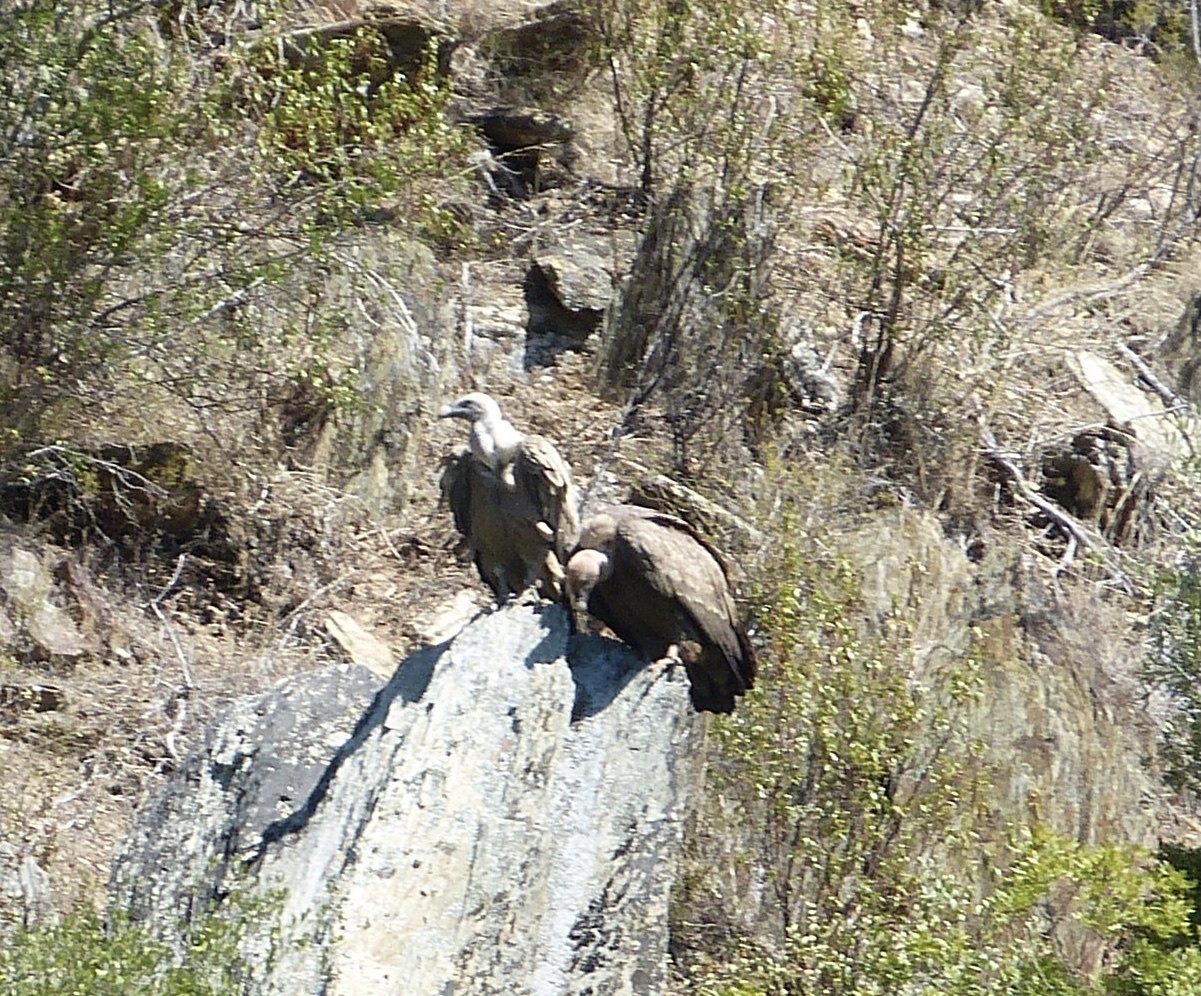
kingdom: Animalia
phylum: Chordata
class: Aves
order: Accipitriformes
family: Accipitridae
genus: Gyps
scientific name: Gyps fulvus
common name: Griffon vulture
